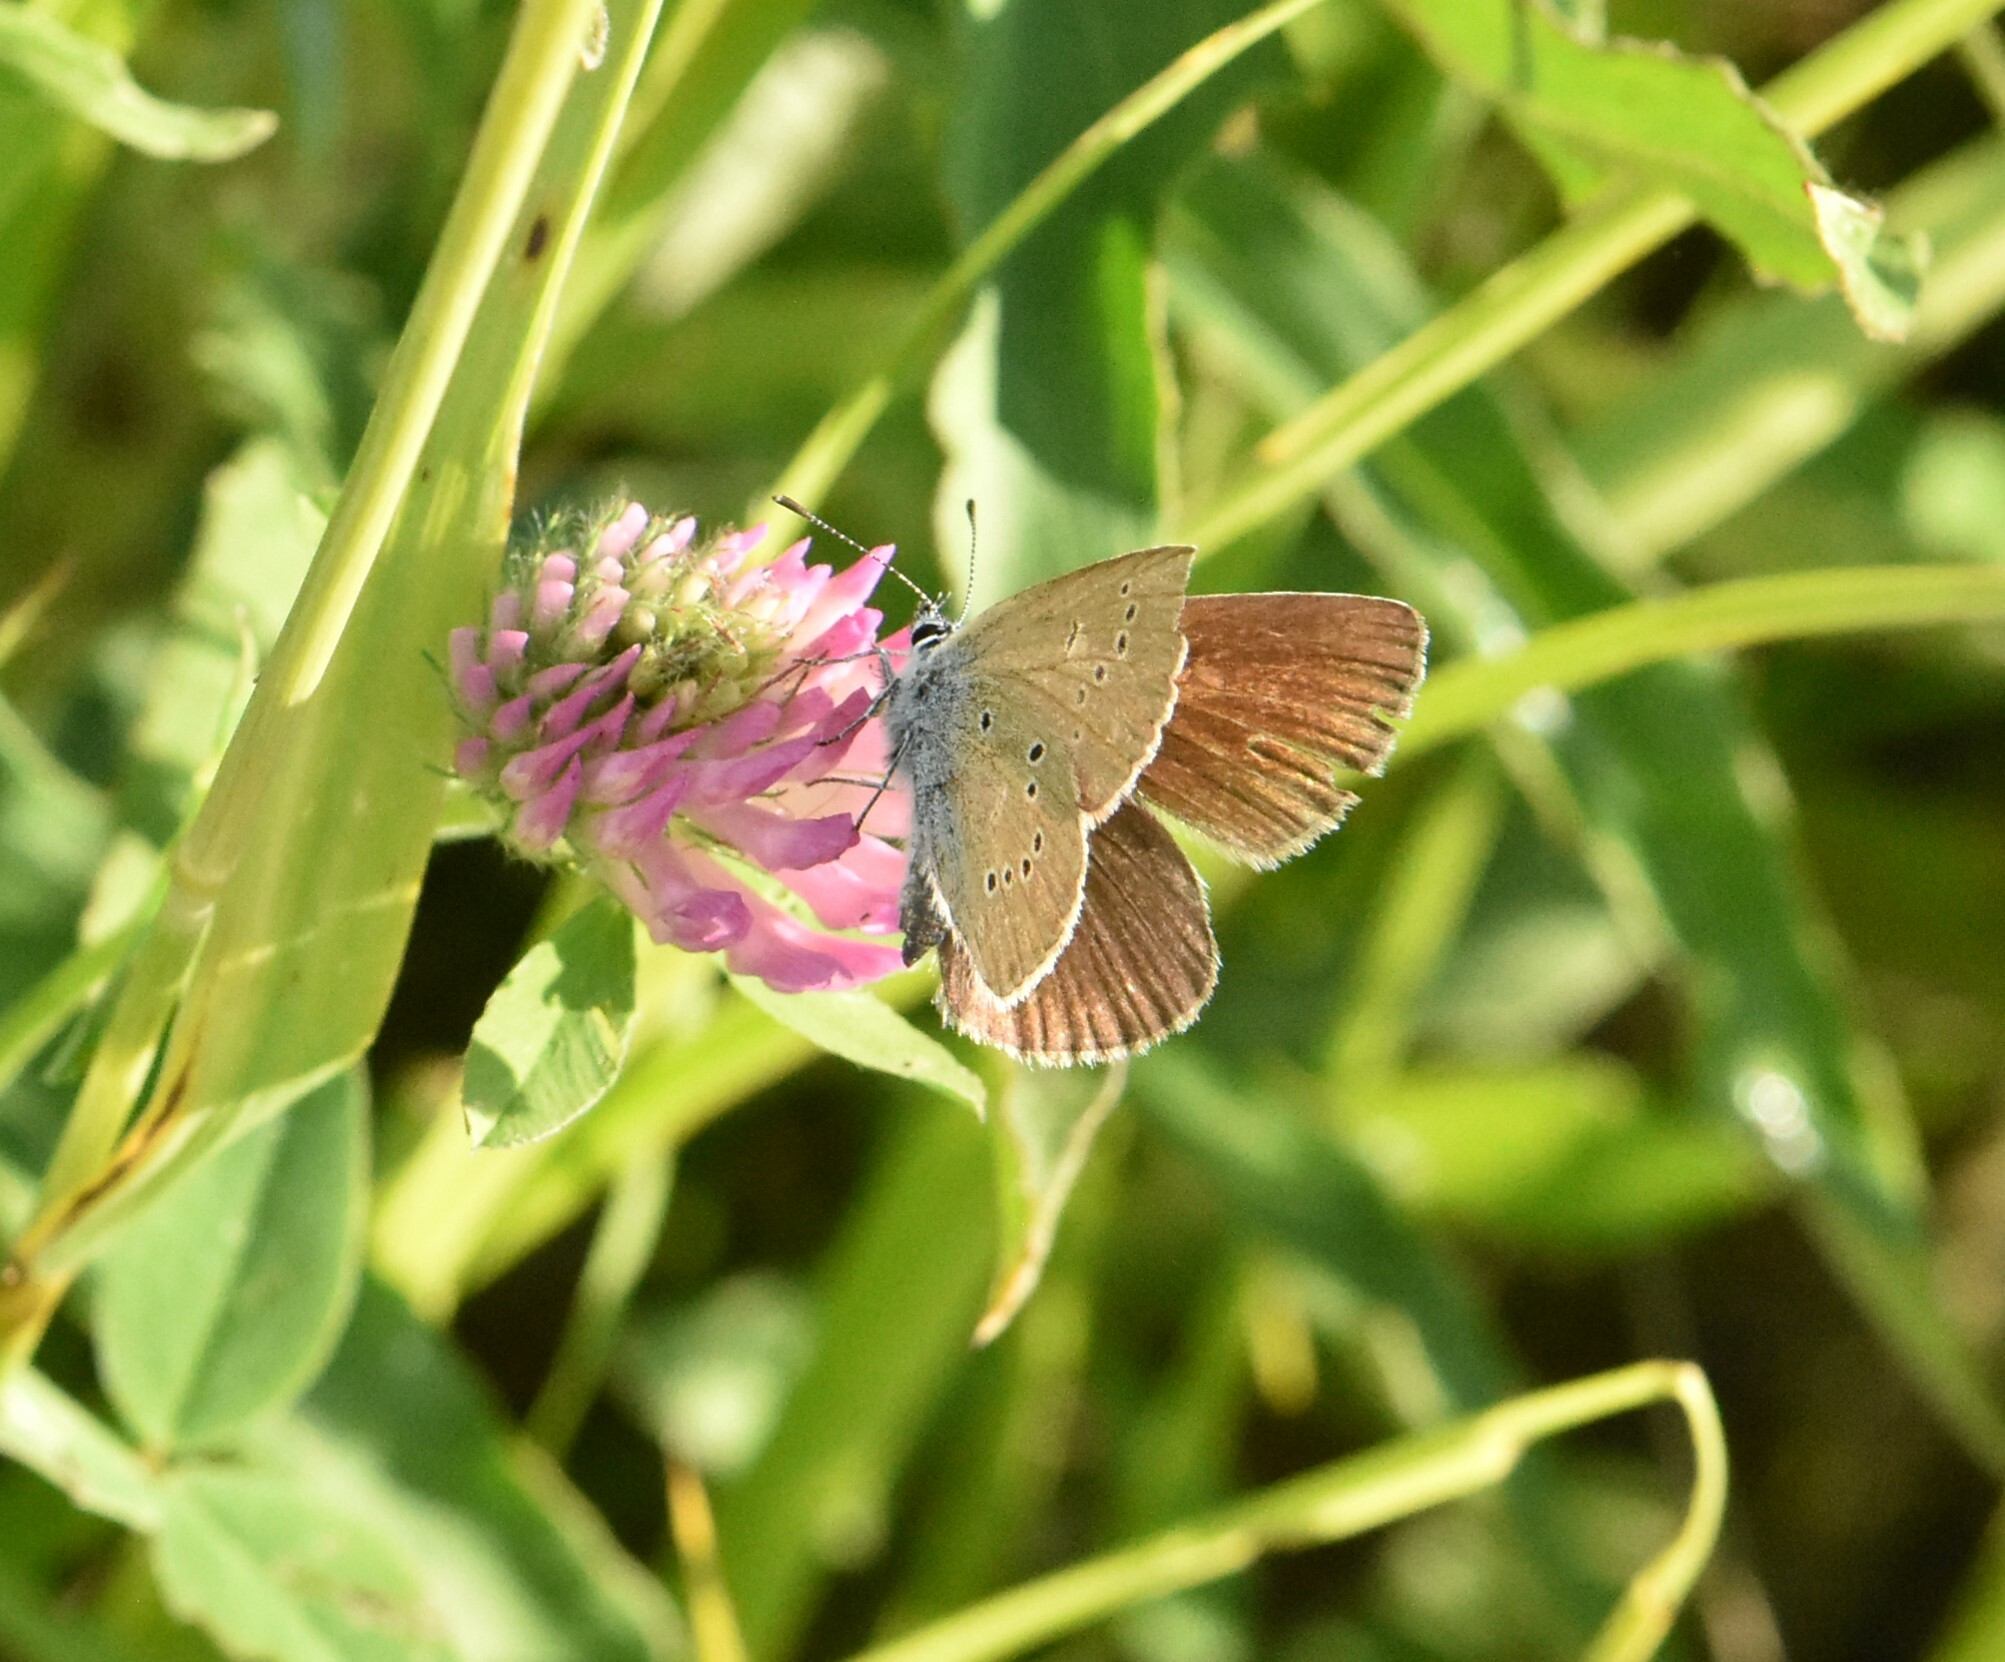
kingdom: Animalia
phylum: Arthropoda
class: Insecta
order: Lepidoptera
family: Lycaenidae
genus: Cyaniris
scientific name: Cyaniris semiargus
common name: Mazarine blue
